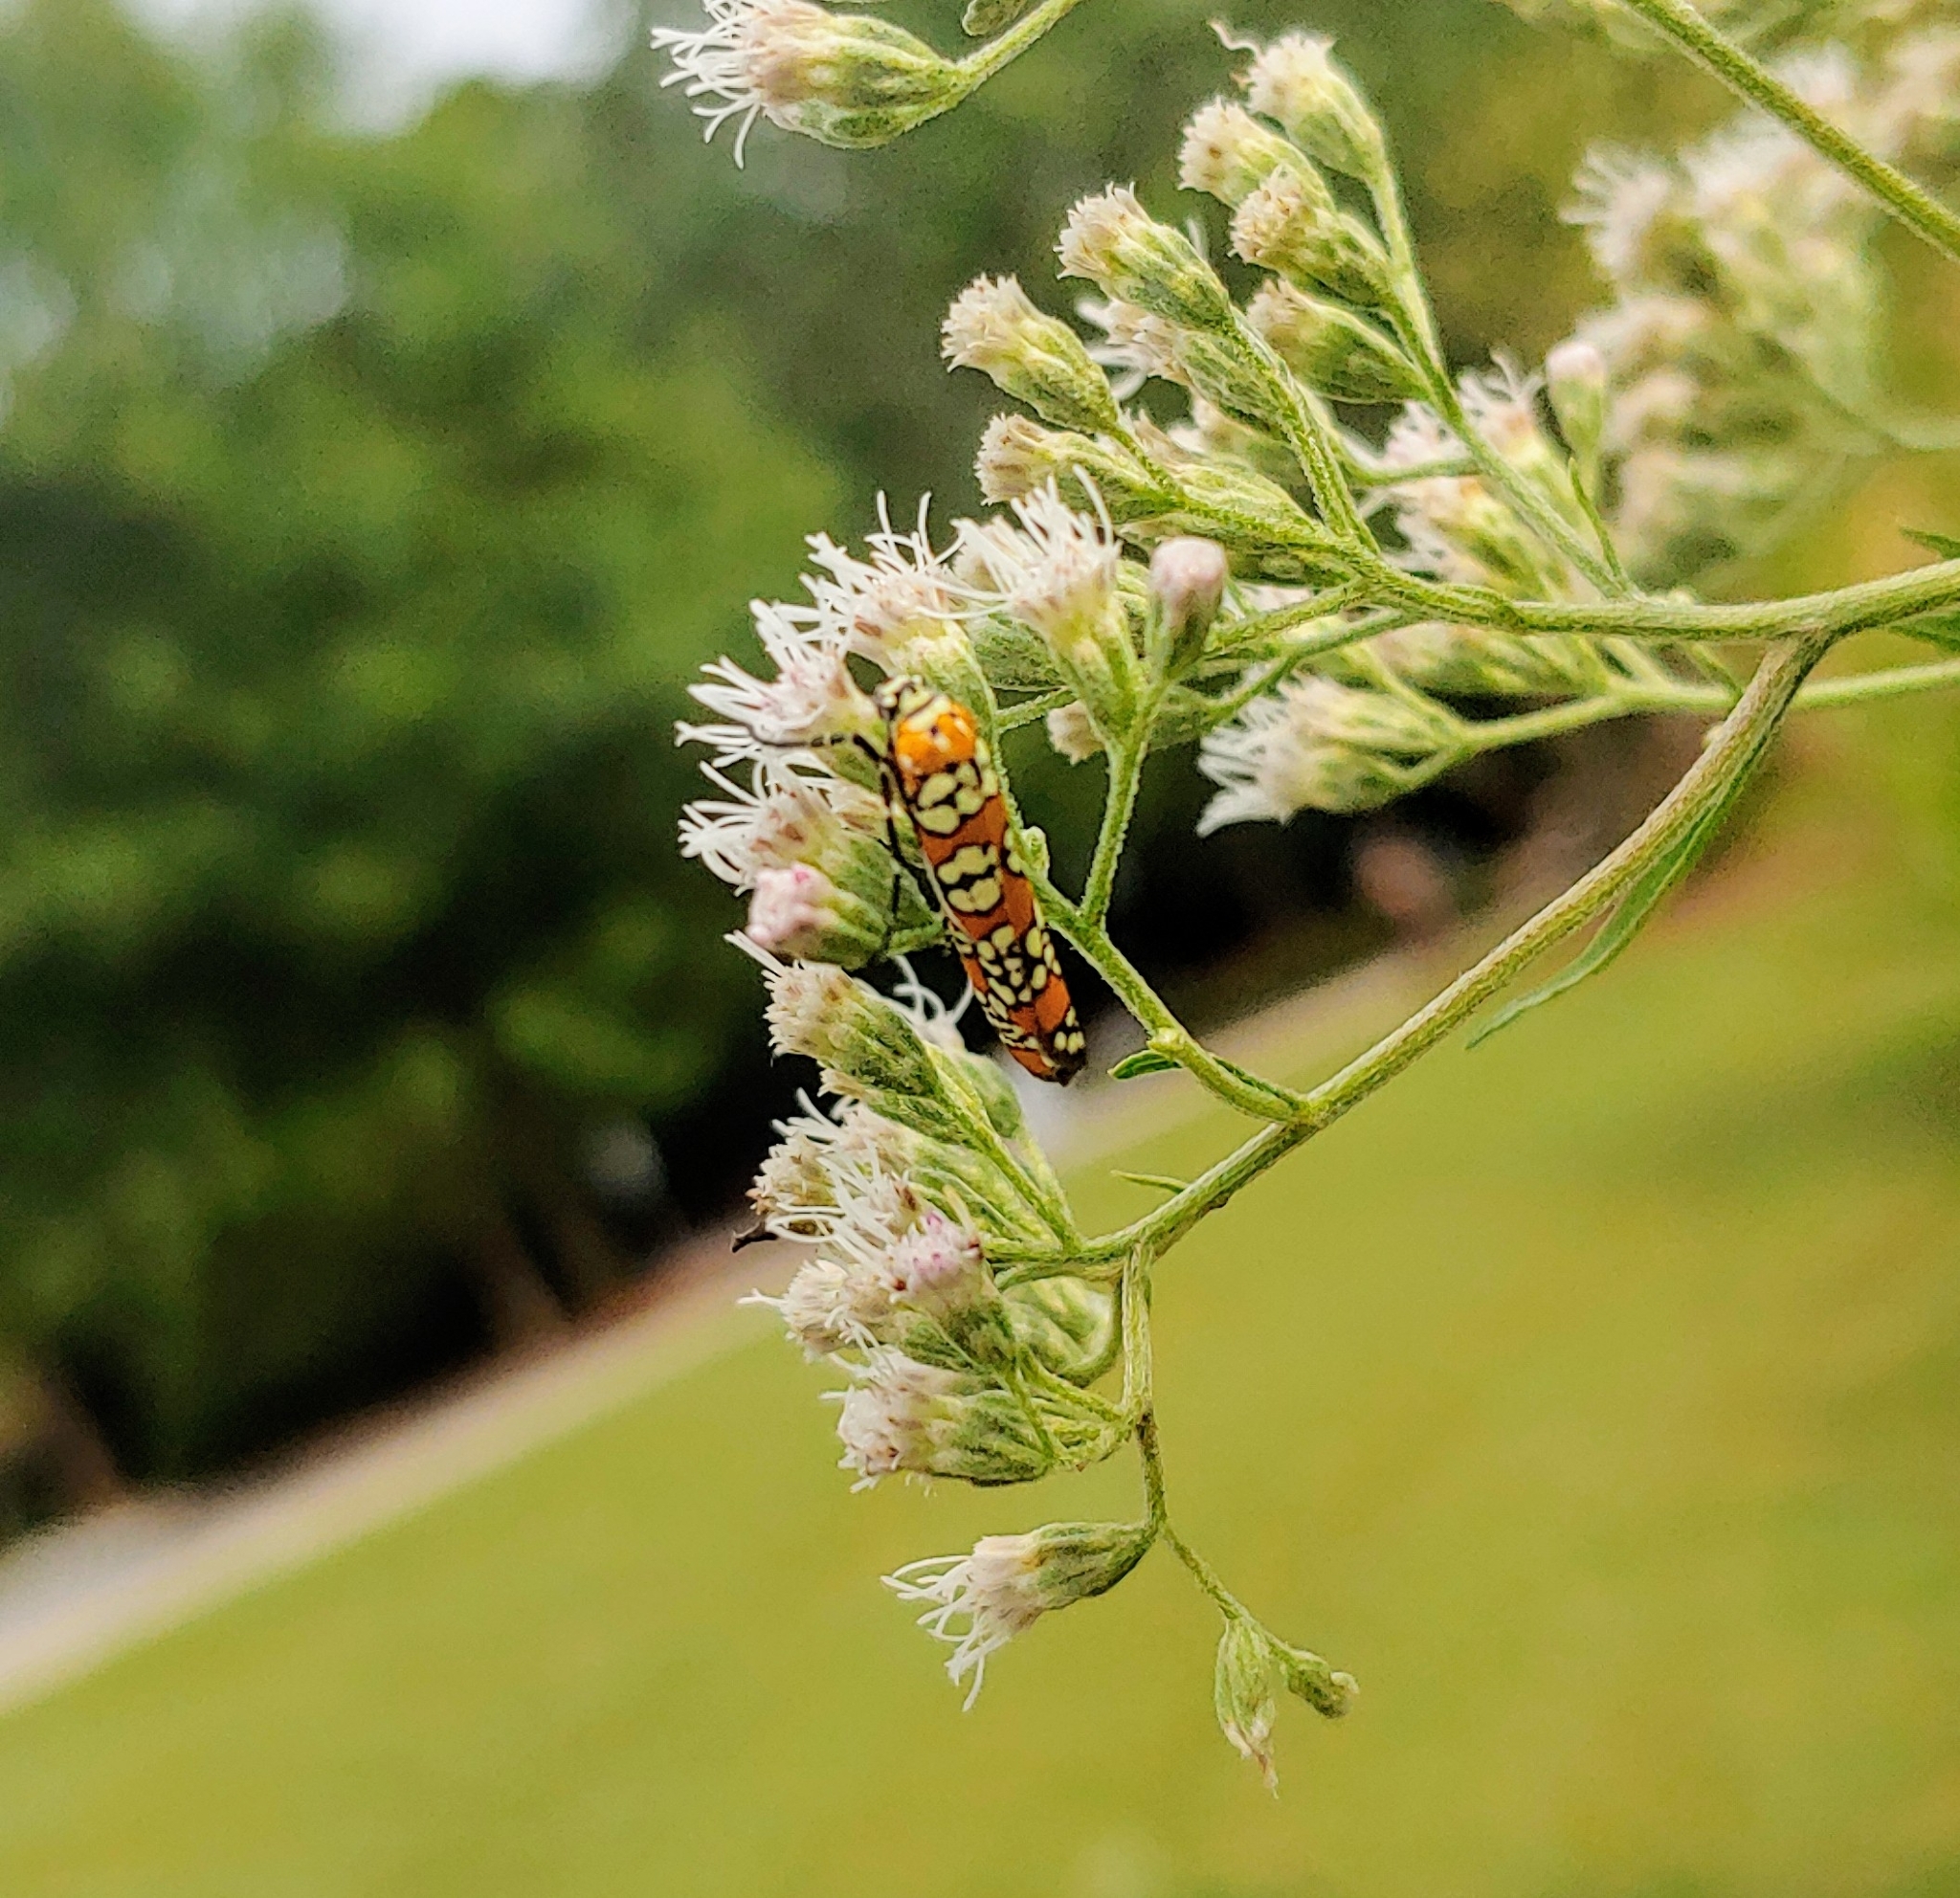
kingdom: Animalia
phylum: Arthropoda
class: Insecta
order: Lepidoptera
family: Attevidae
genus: Atteva
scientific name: Atteva punctella
